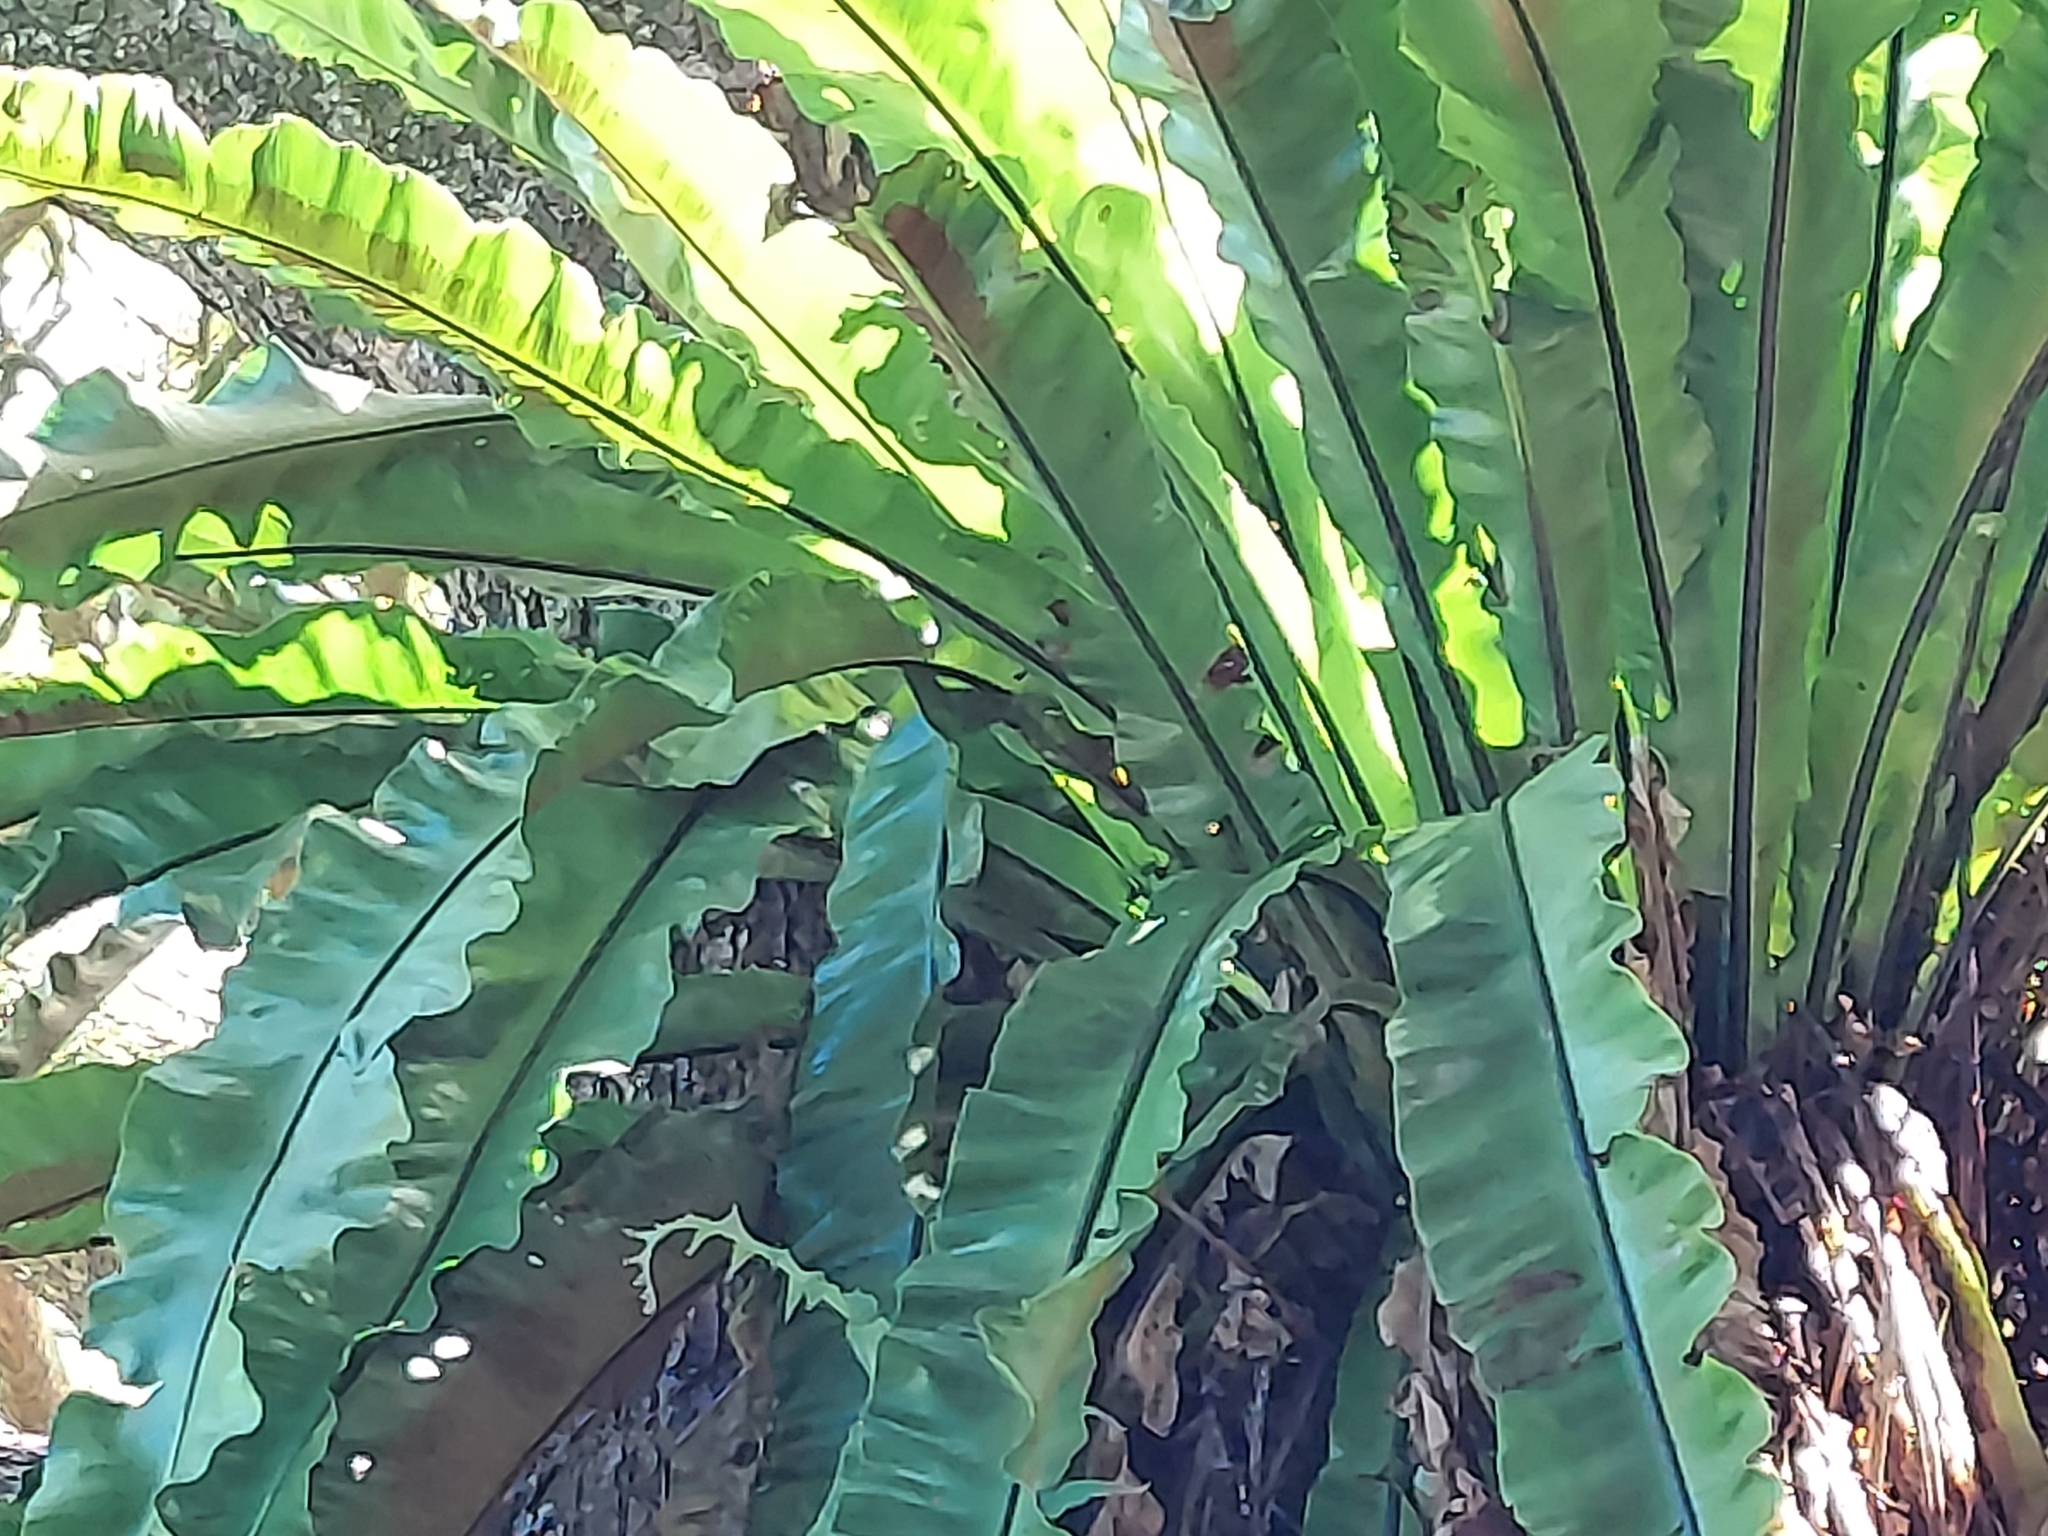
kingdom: Plantae
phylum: Tracheophyta
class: Polypodiopsida
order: Polypodiales
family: Aspleniaceae
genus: Asplenium
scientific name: Asplenium nidus
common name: Bird's-nest fern
